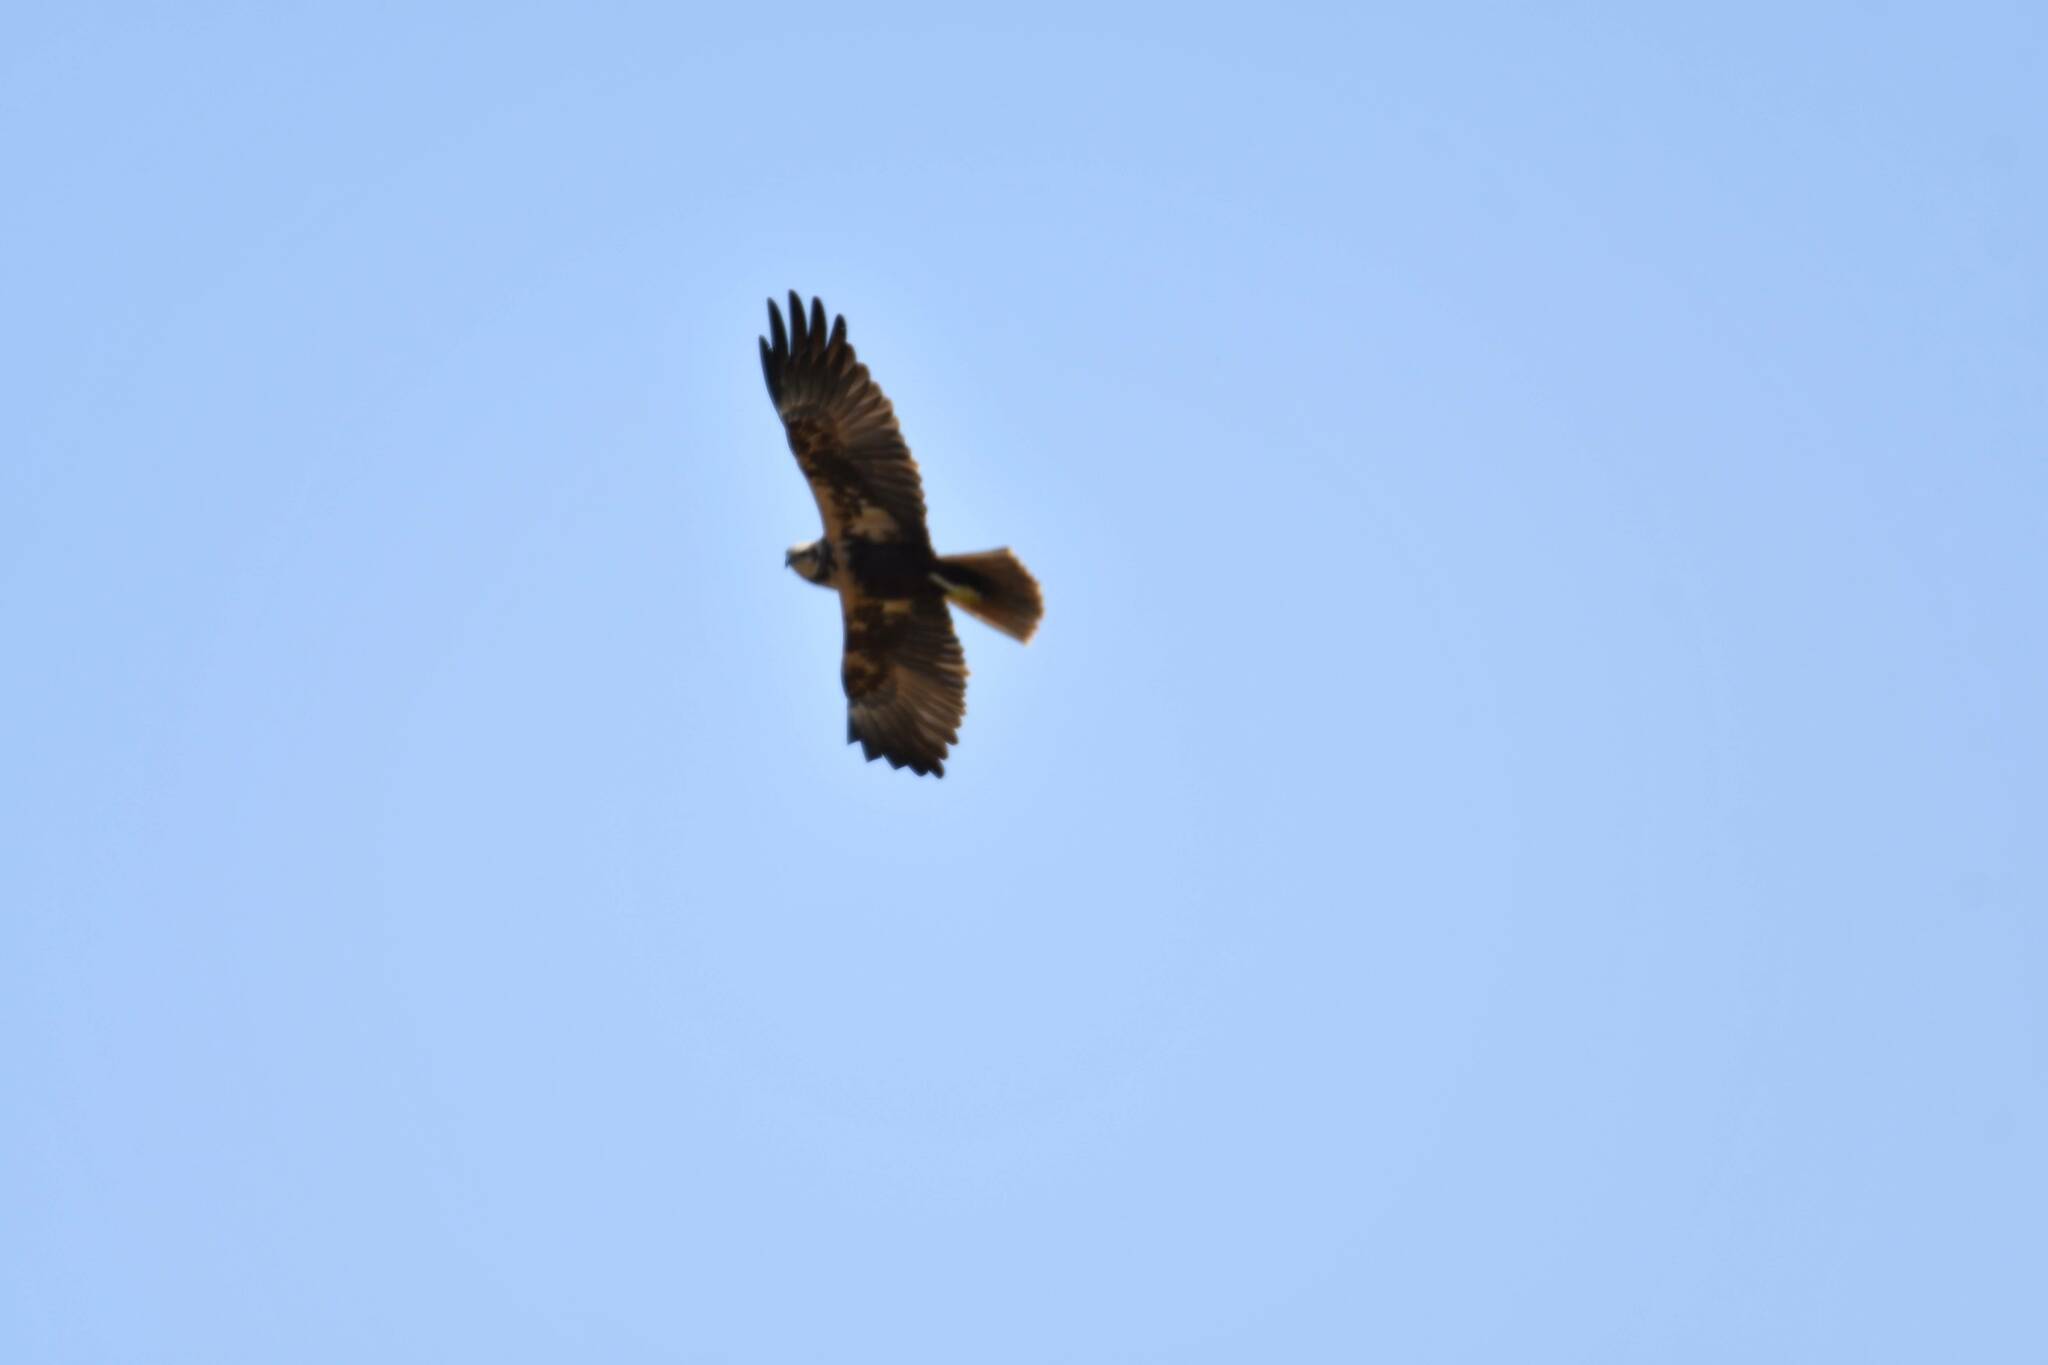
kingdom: Animalia
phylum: Chordata
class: Aves
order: Accipitriformes
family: Accipitridae
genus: Circus
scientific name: Circus aeruginosus
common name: Western marsh harrier
